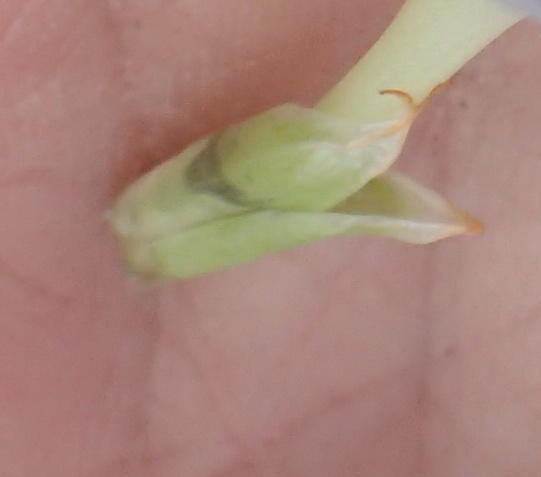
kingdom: Plantae
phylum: Tracheophyta
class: Liliopsida
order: Asparagales
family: Iridaceae
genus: Babiana
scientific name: Babiana sambucina
